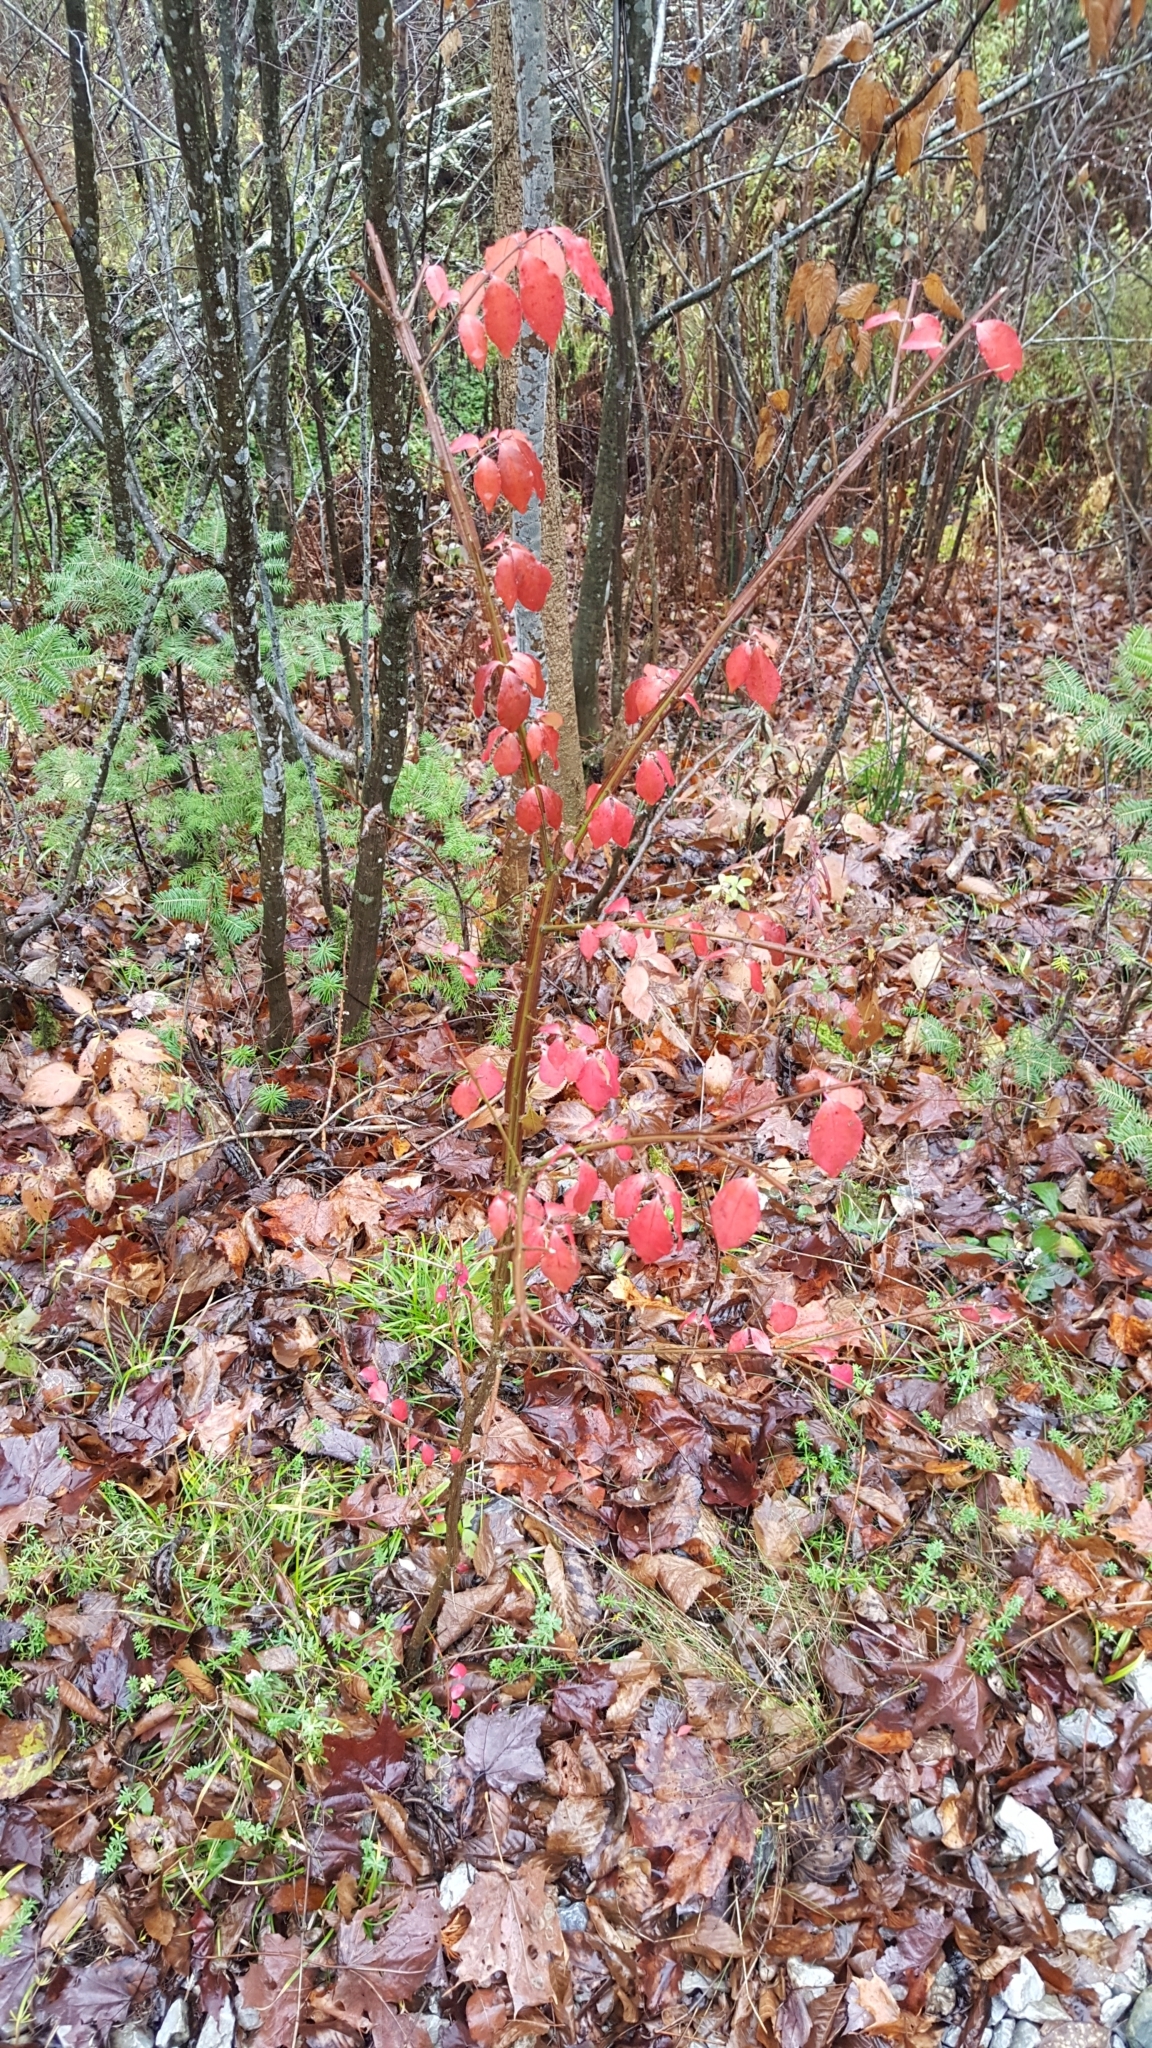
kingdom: Plantae
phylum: Tracheophyta
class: Magnoliopsida
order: Celastrales
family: Celastraceae
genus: Euonymus
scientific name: Euonymus alatus
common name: Winged euonymus
